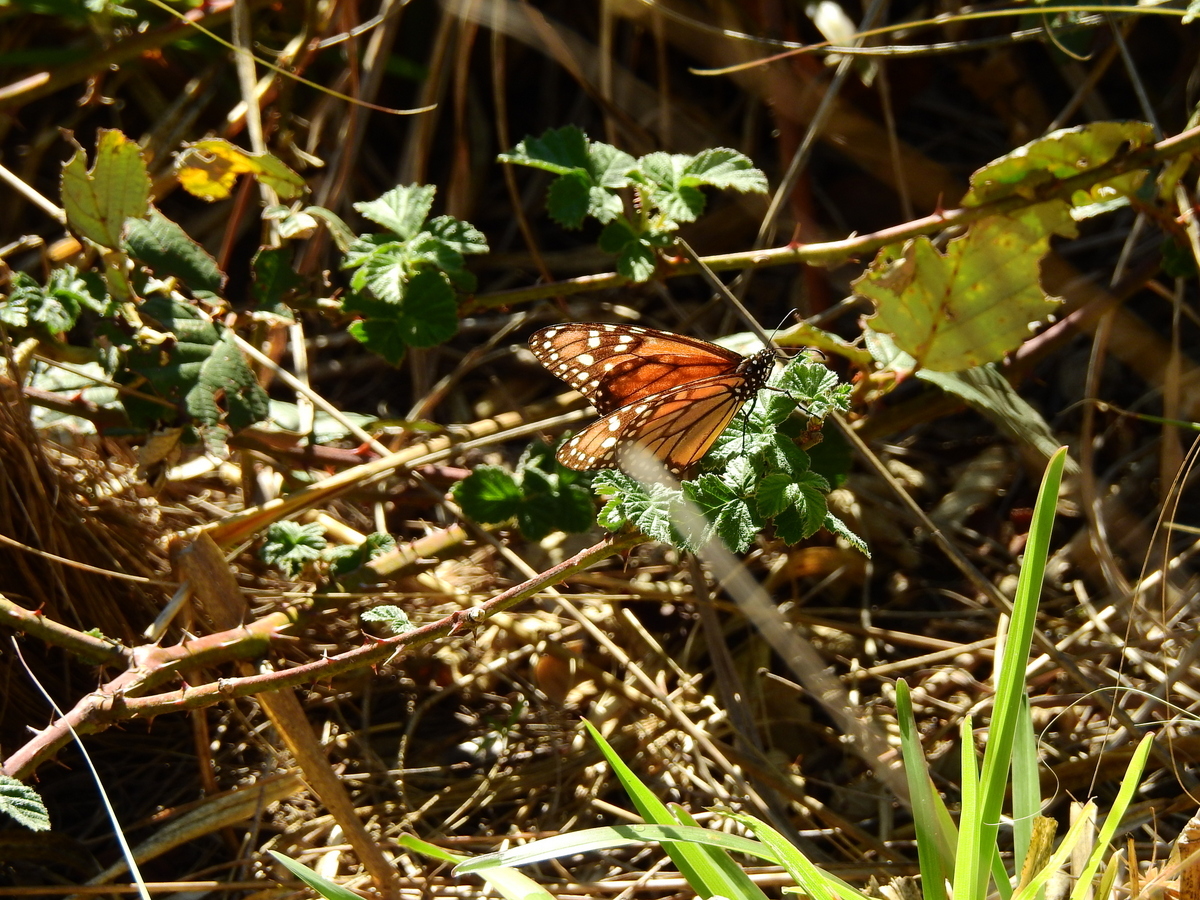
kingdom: Animalia
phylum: Arthropoda
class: Insecta
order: Lepidoptera
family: Nymphalidae
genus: Danaus
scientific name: Danaus erippus
